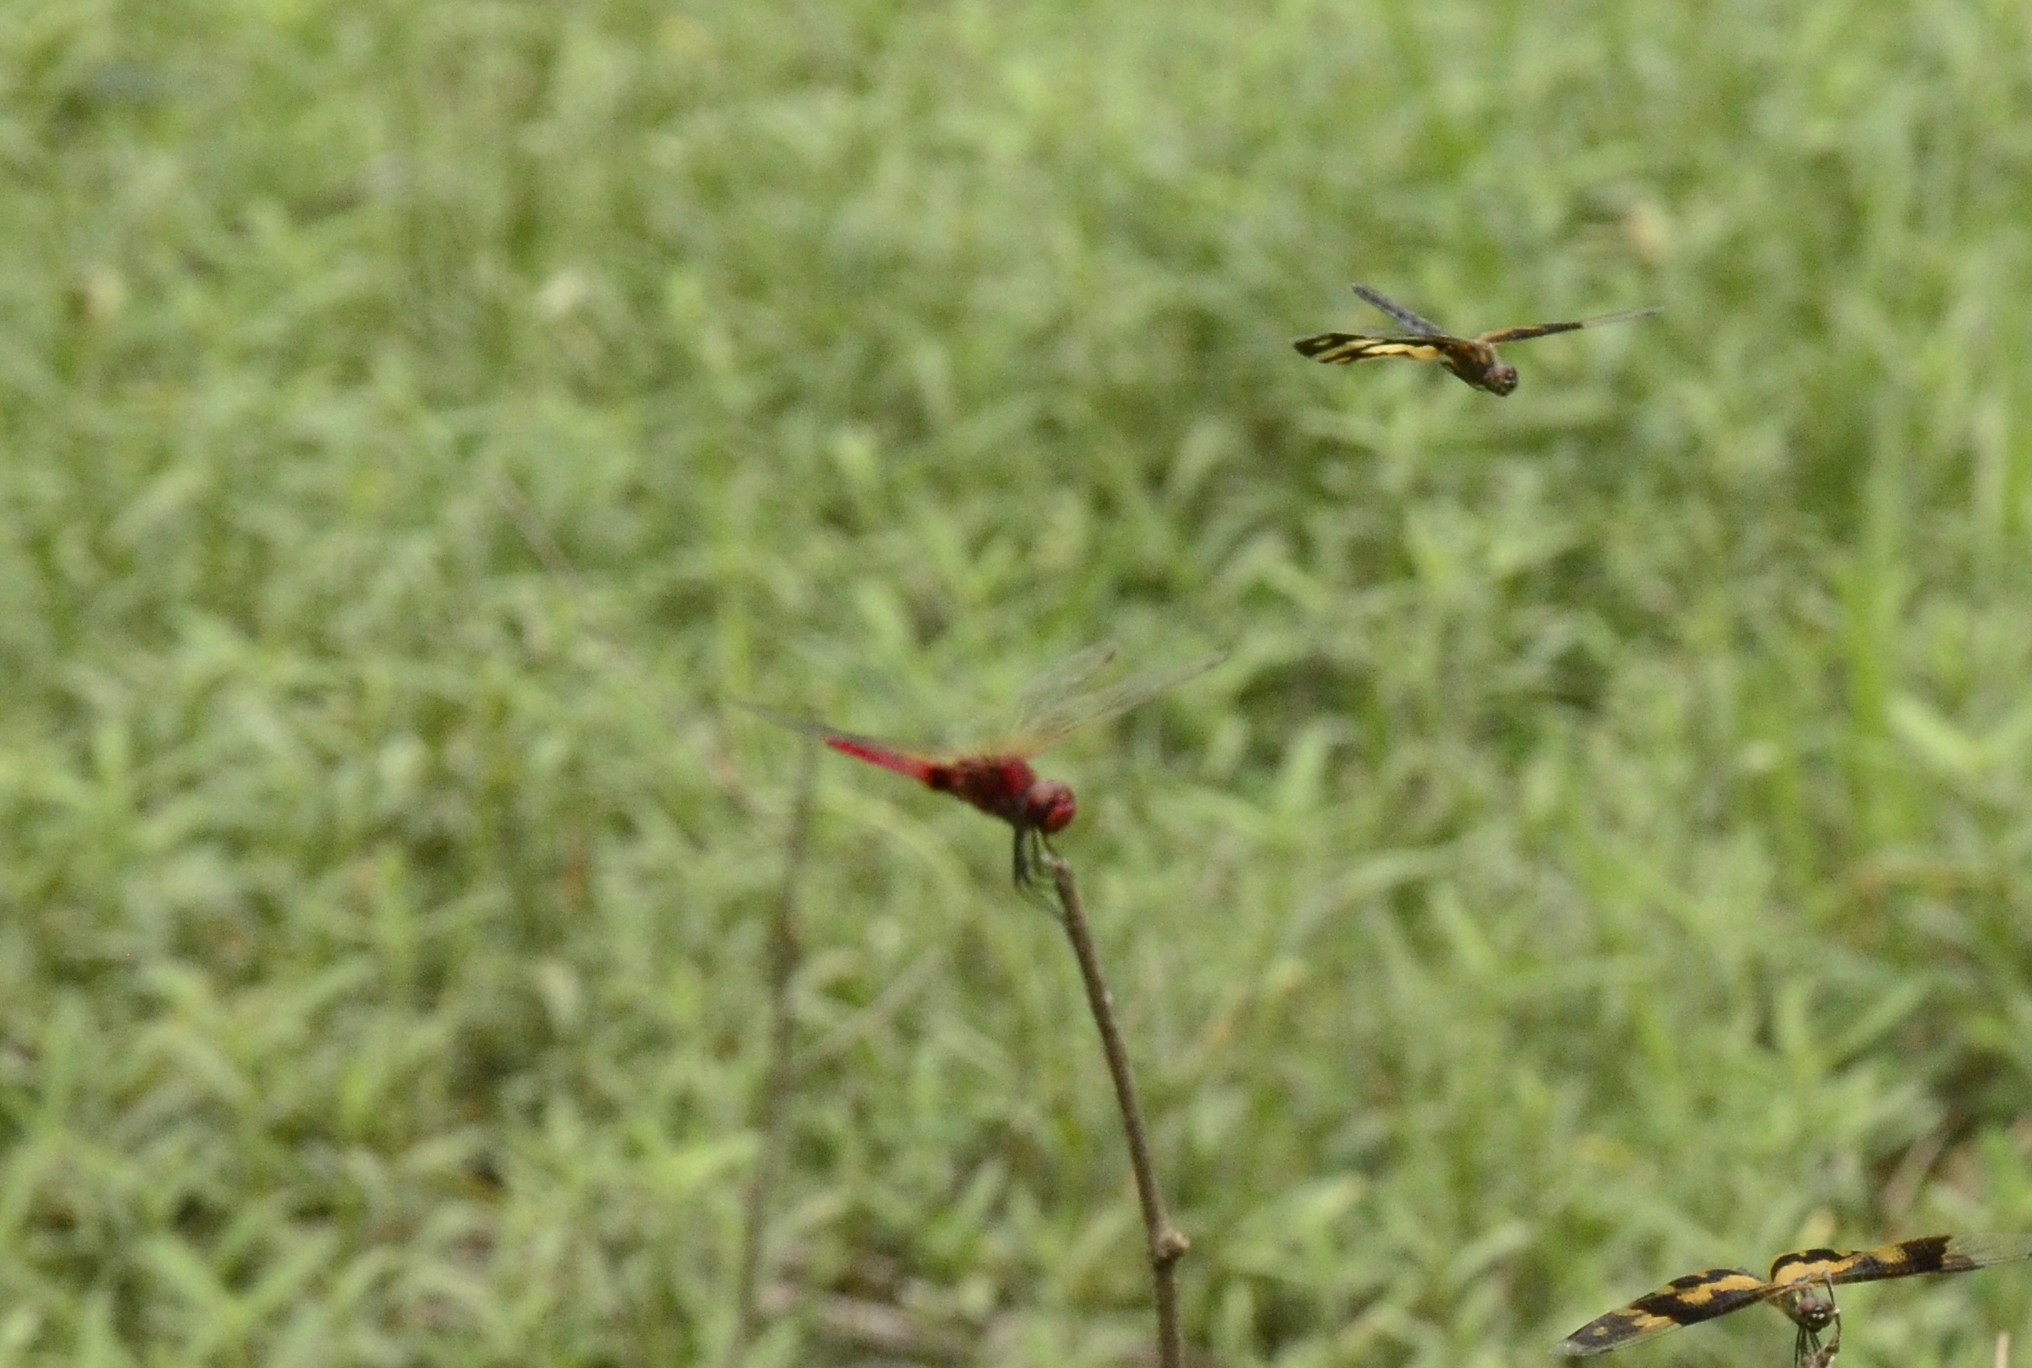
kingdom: Animalia
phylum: Arthropoda
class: Insecta
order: Odonata
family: Libellulidae
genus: Urothemis
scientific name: Urothemis signata
